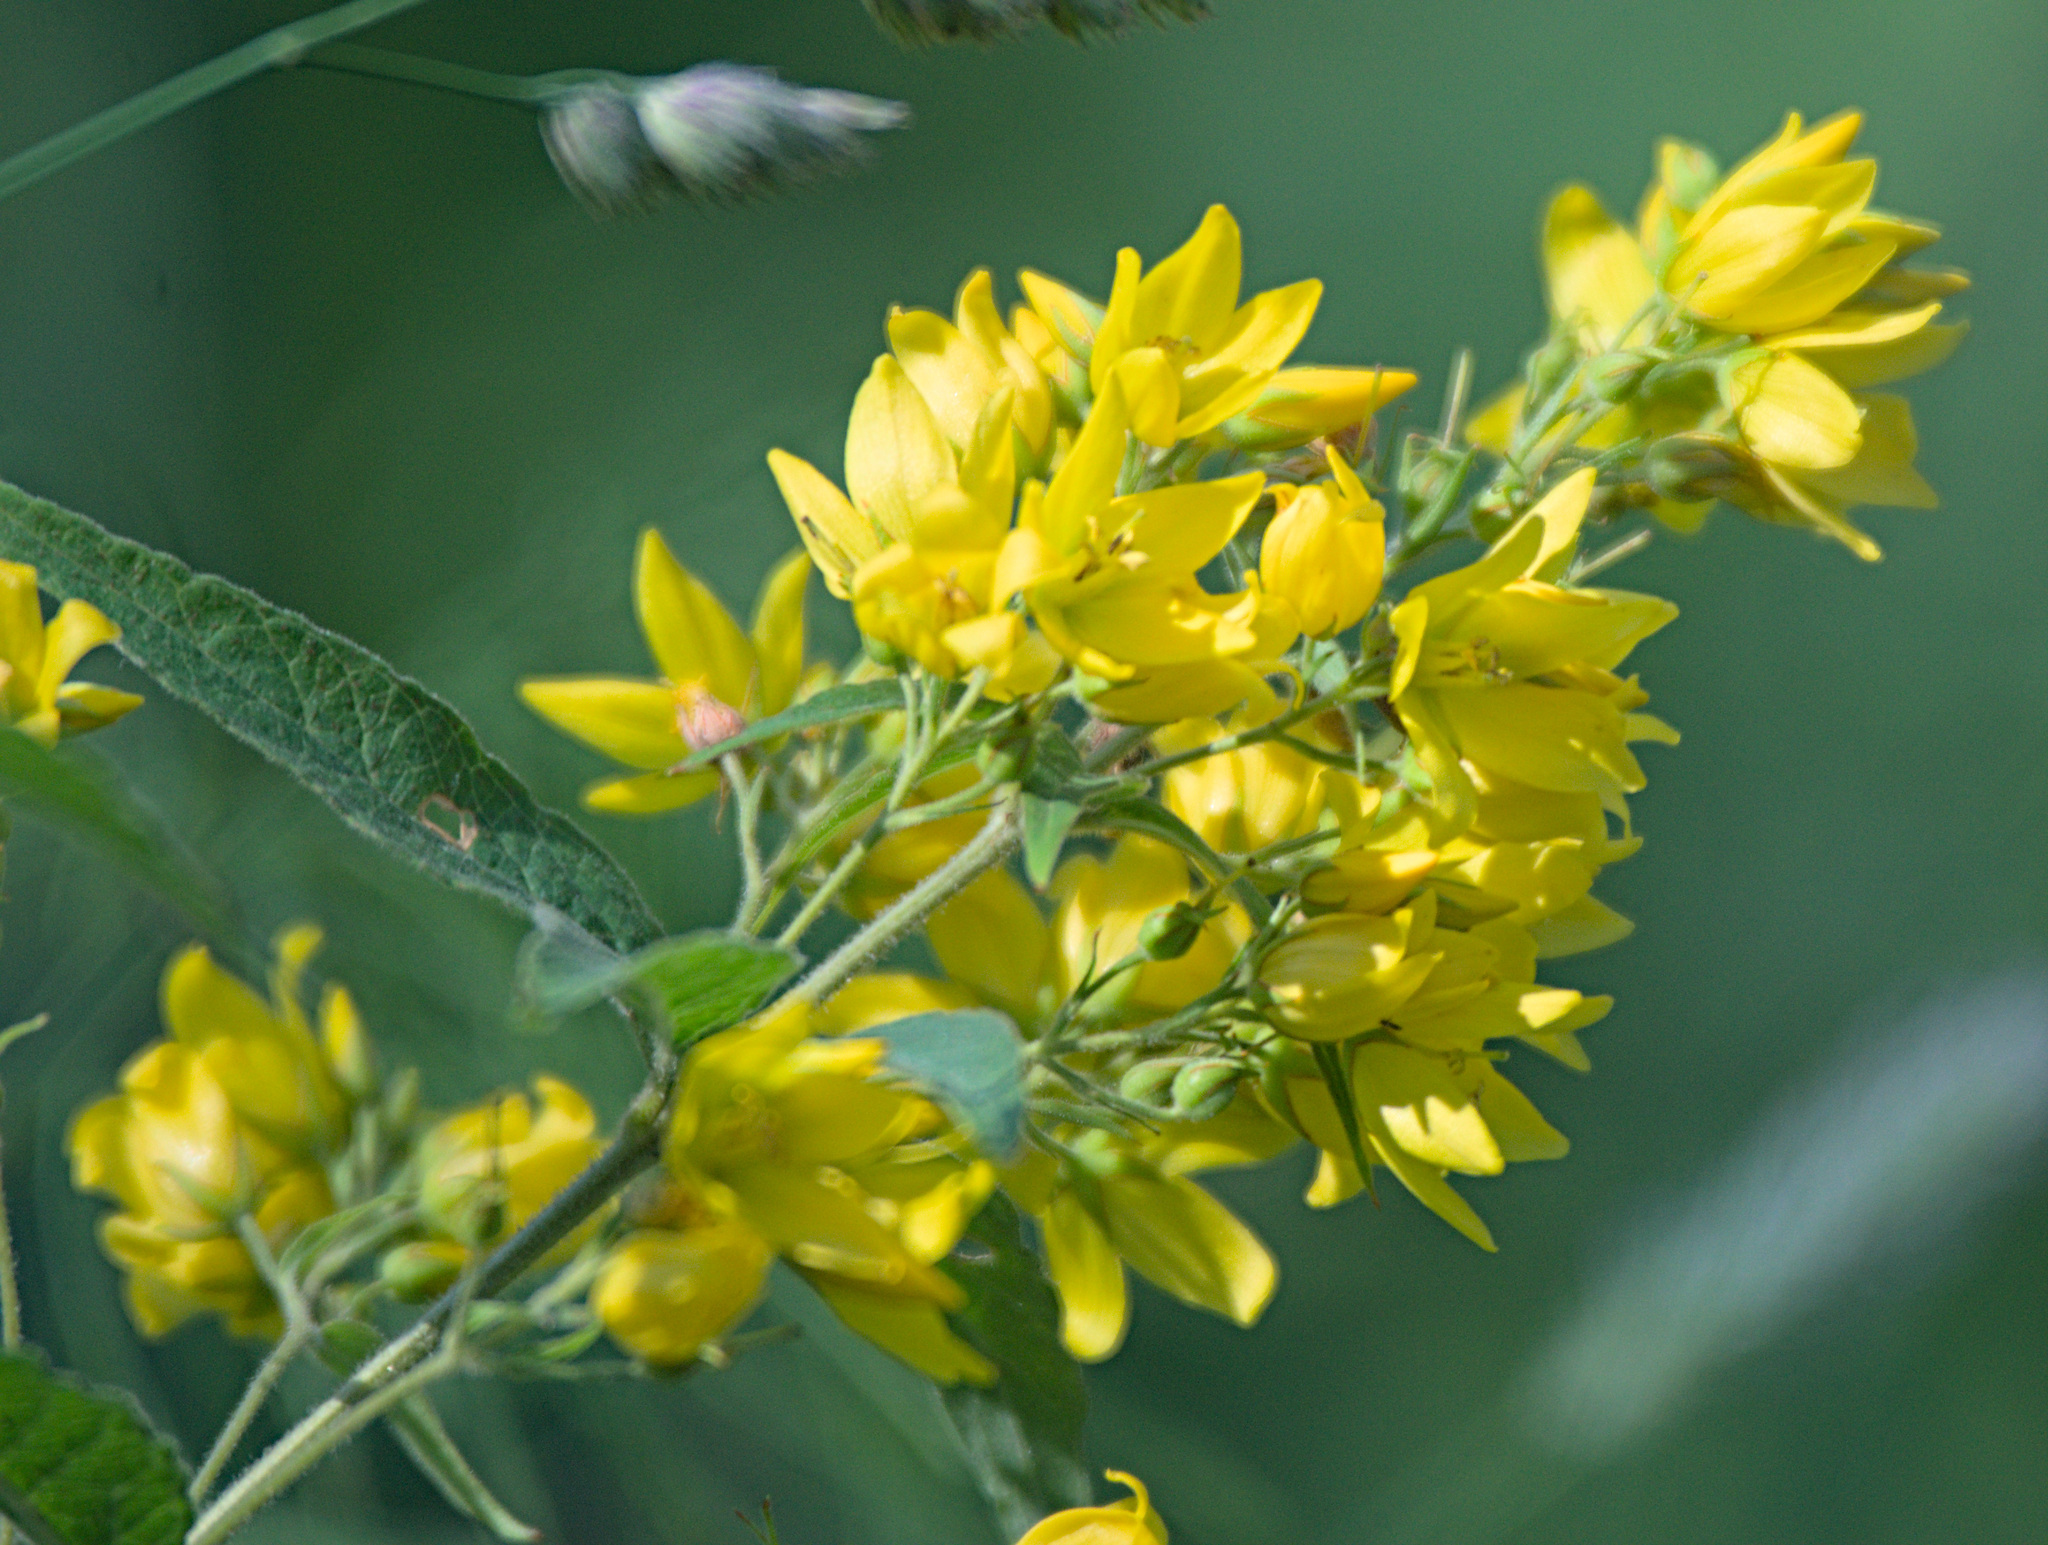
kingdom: Plantae
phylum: Tracheophyta
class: Magnoliopsida
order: Ericales
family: Primulaceae
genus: Lysimachia
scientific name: Lysimachia vulgaris
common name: Yellow loosestrife
